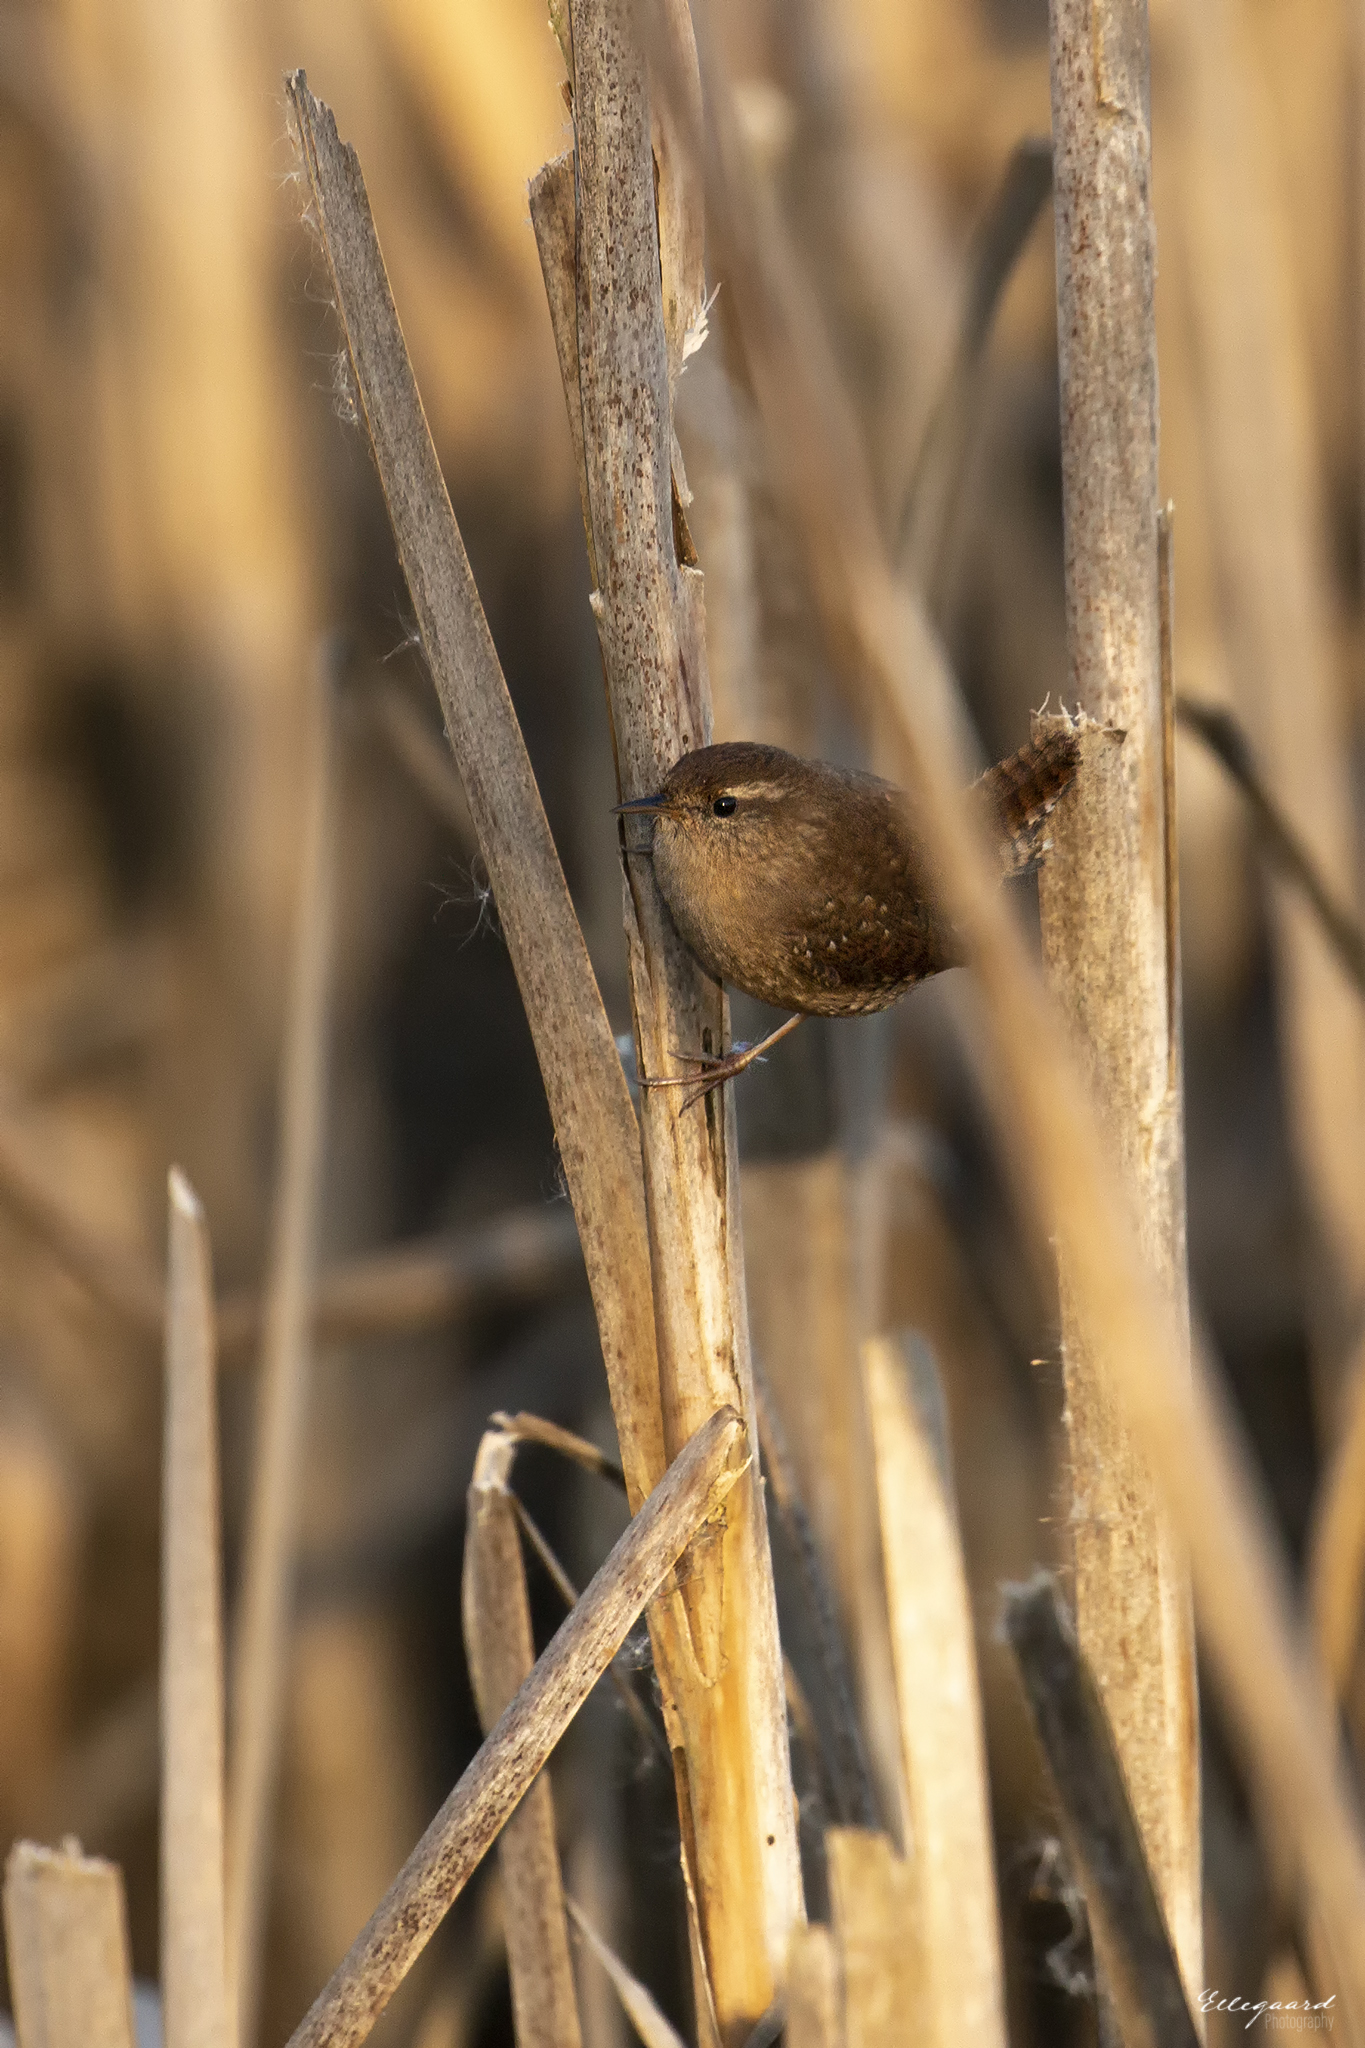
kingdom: Animalia
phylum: Chordata
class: Aves
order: Passeriformes
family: Troglodytidae
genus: Troglodytes
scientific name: Troglodytes troglodytes
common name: Eurasian wren
